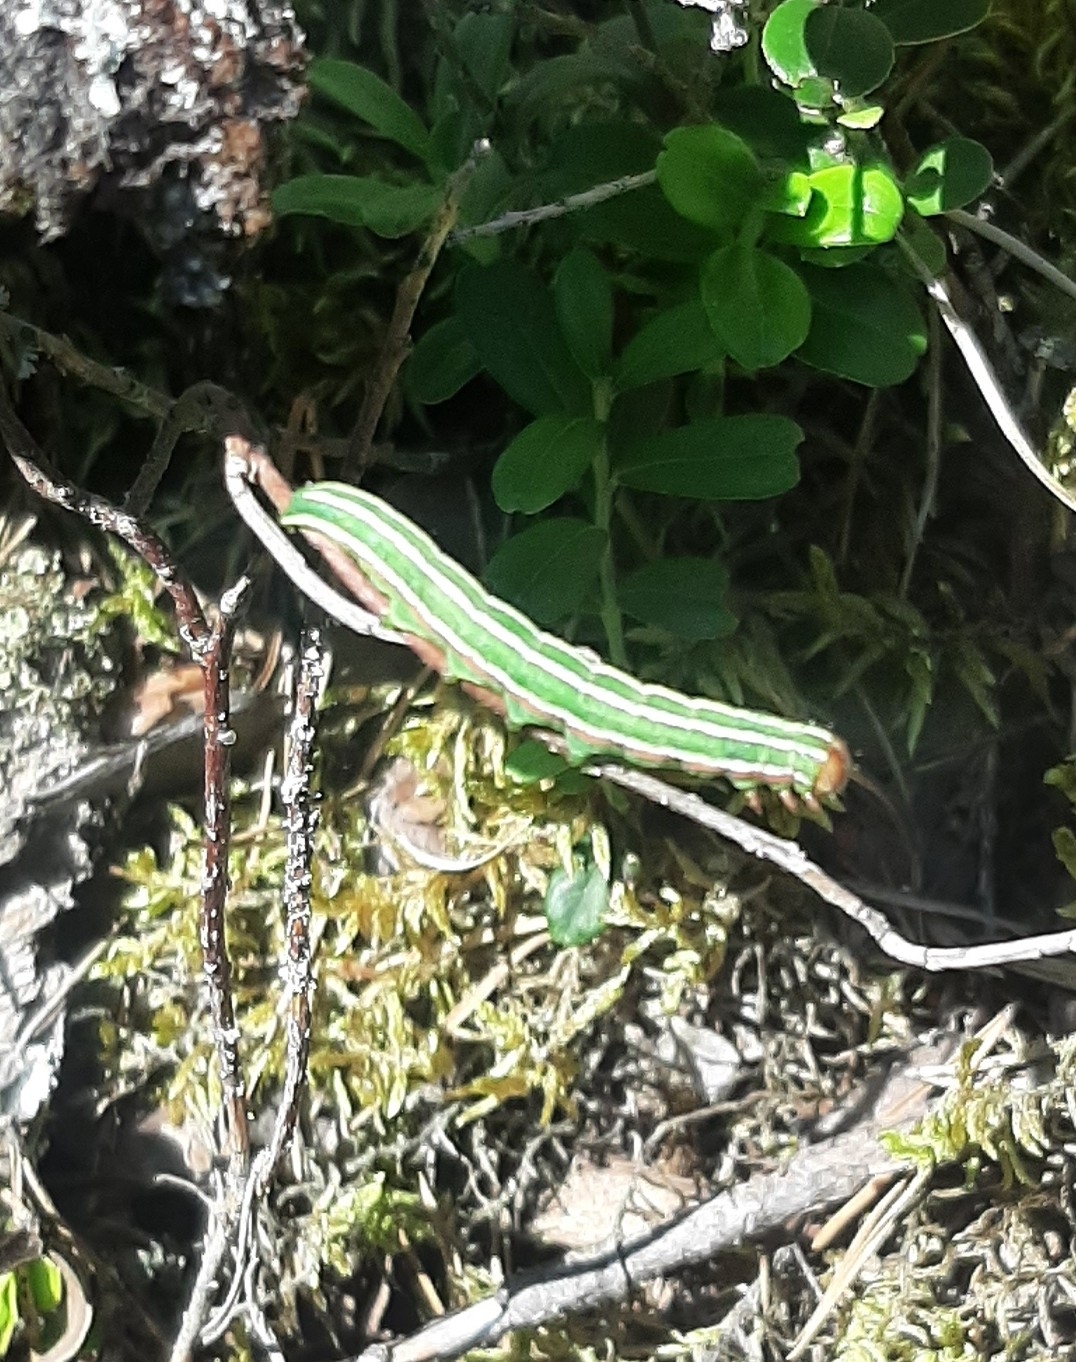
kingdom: Animalia
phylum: Arthropoda
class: Insecta
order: Lepidoptera
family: Noctuidae
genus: Panolis
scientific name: Panolis flammea
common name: Pine beauty
